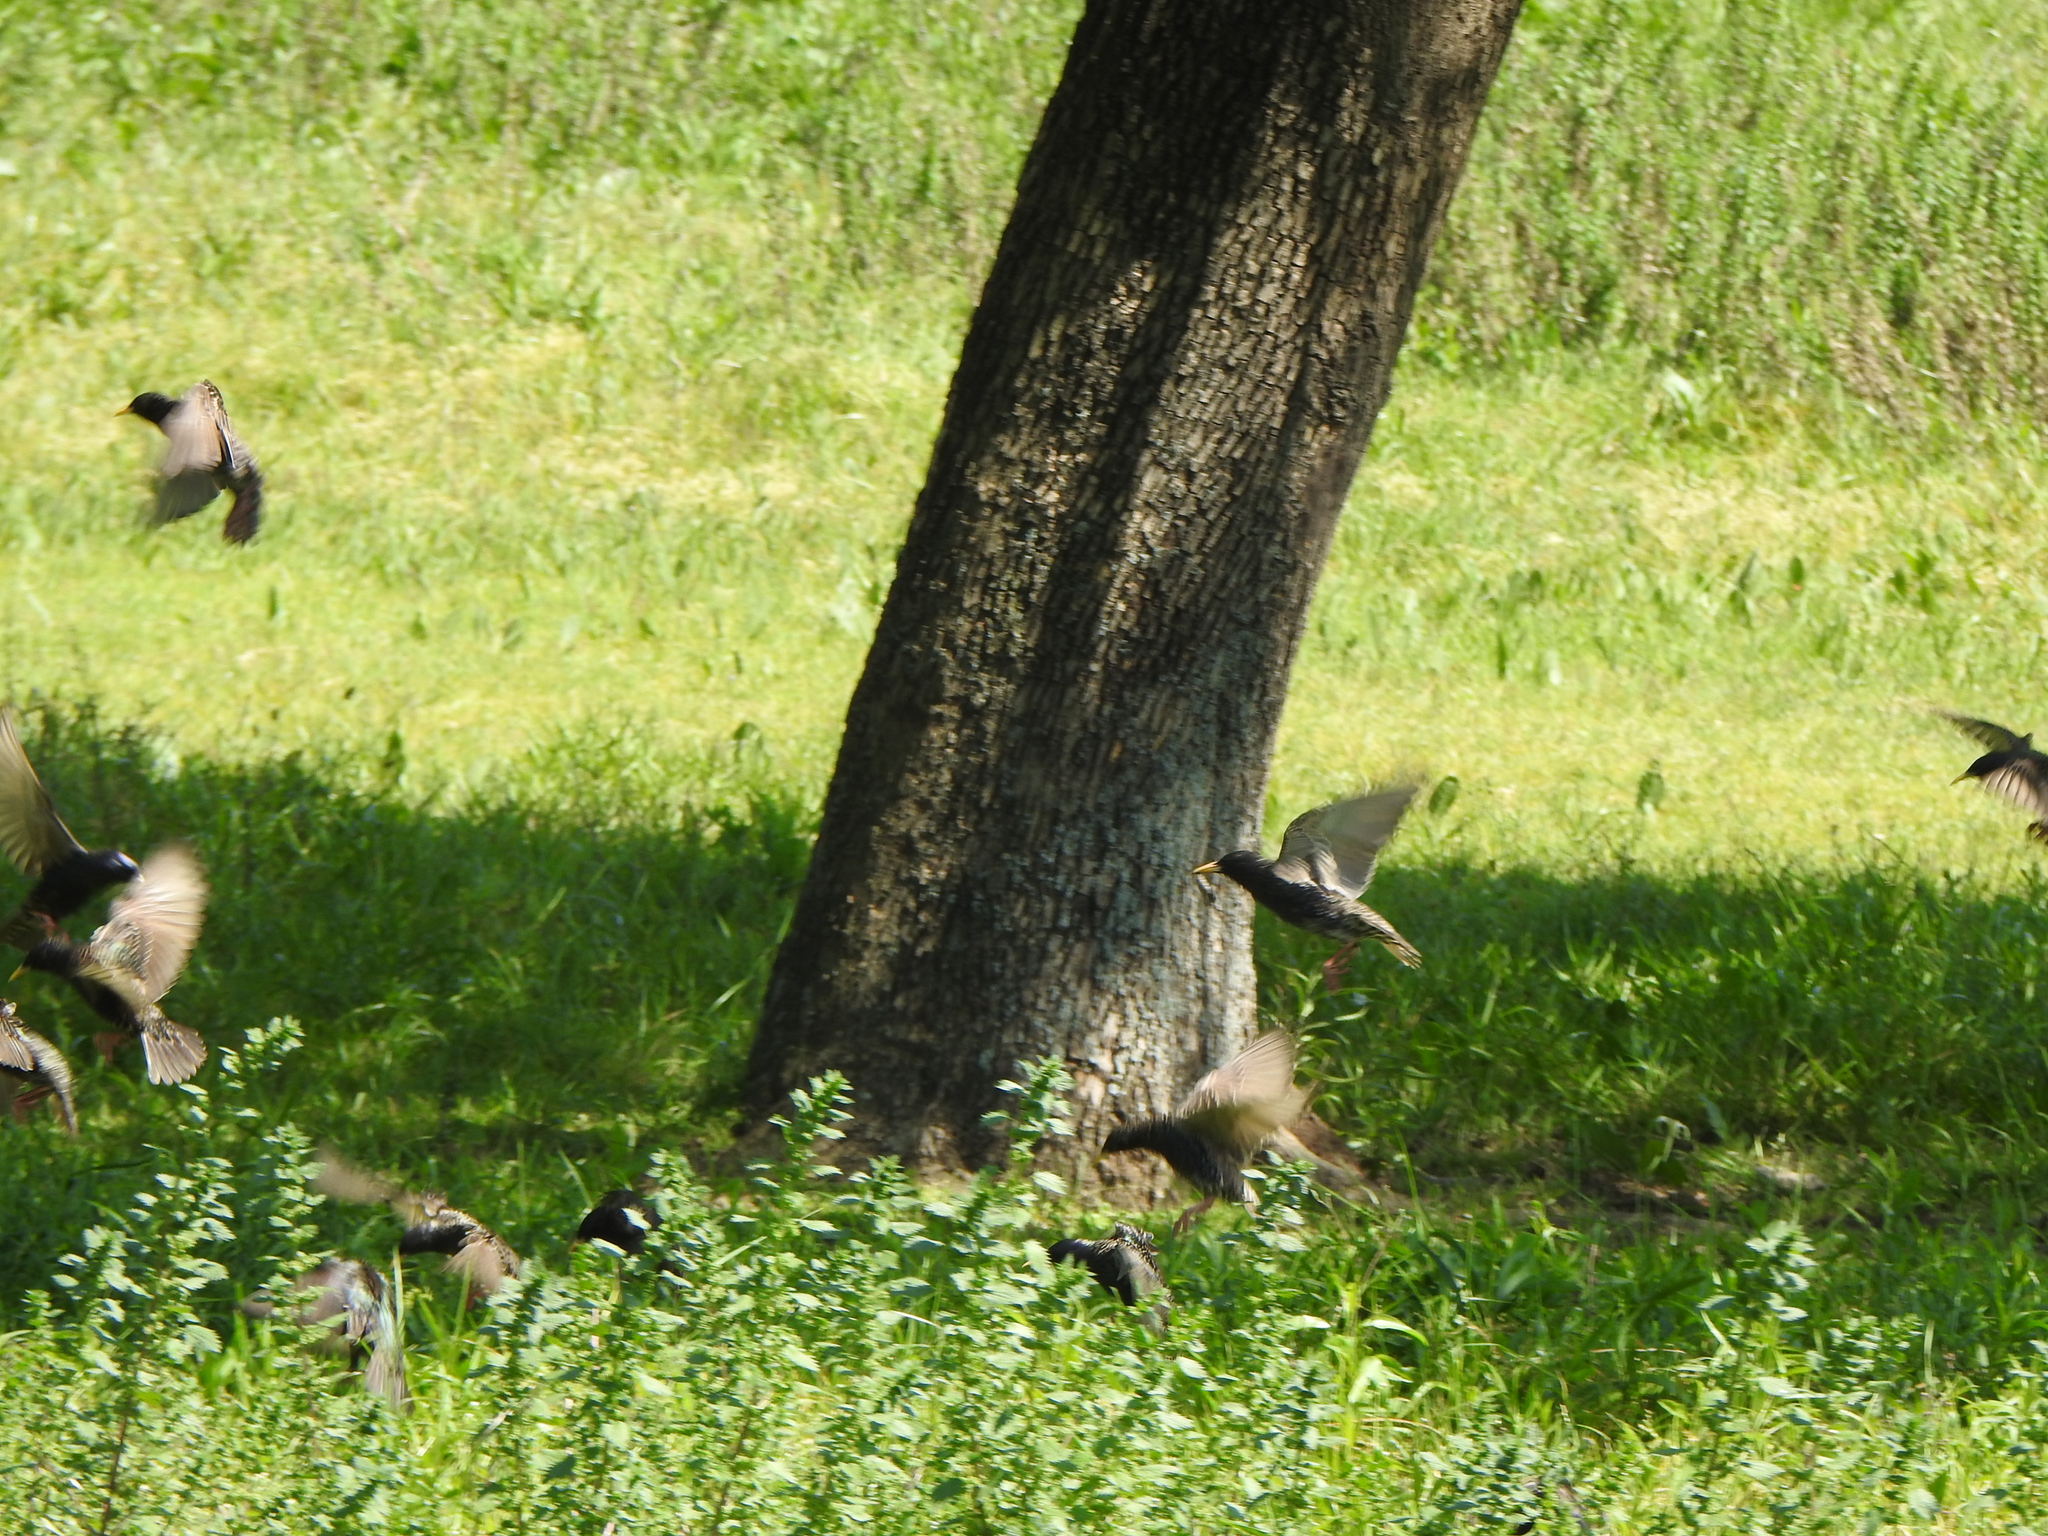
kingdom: Animalia
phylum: Chordata
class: Aves
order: Passeriformes
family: Sturnidae
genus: Sturnus
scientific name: Sturnus vulgaris
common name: Common starling
